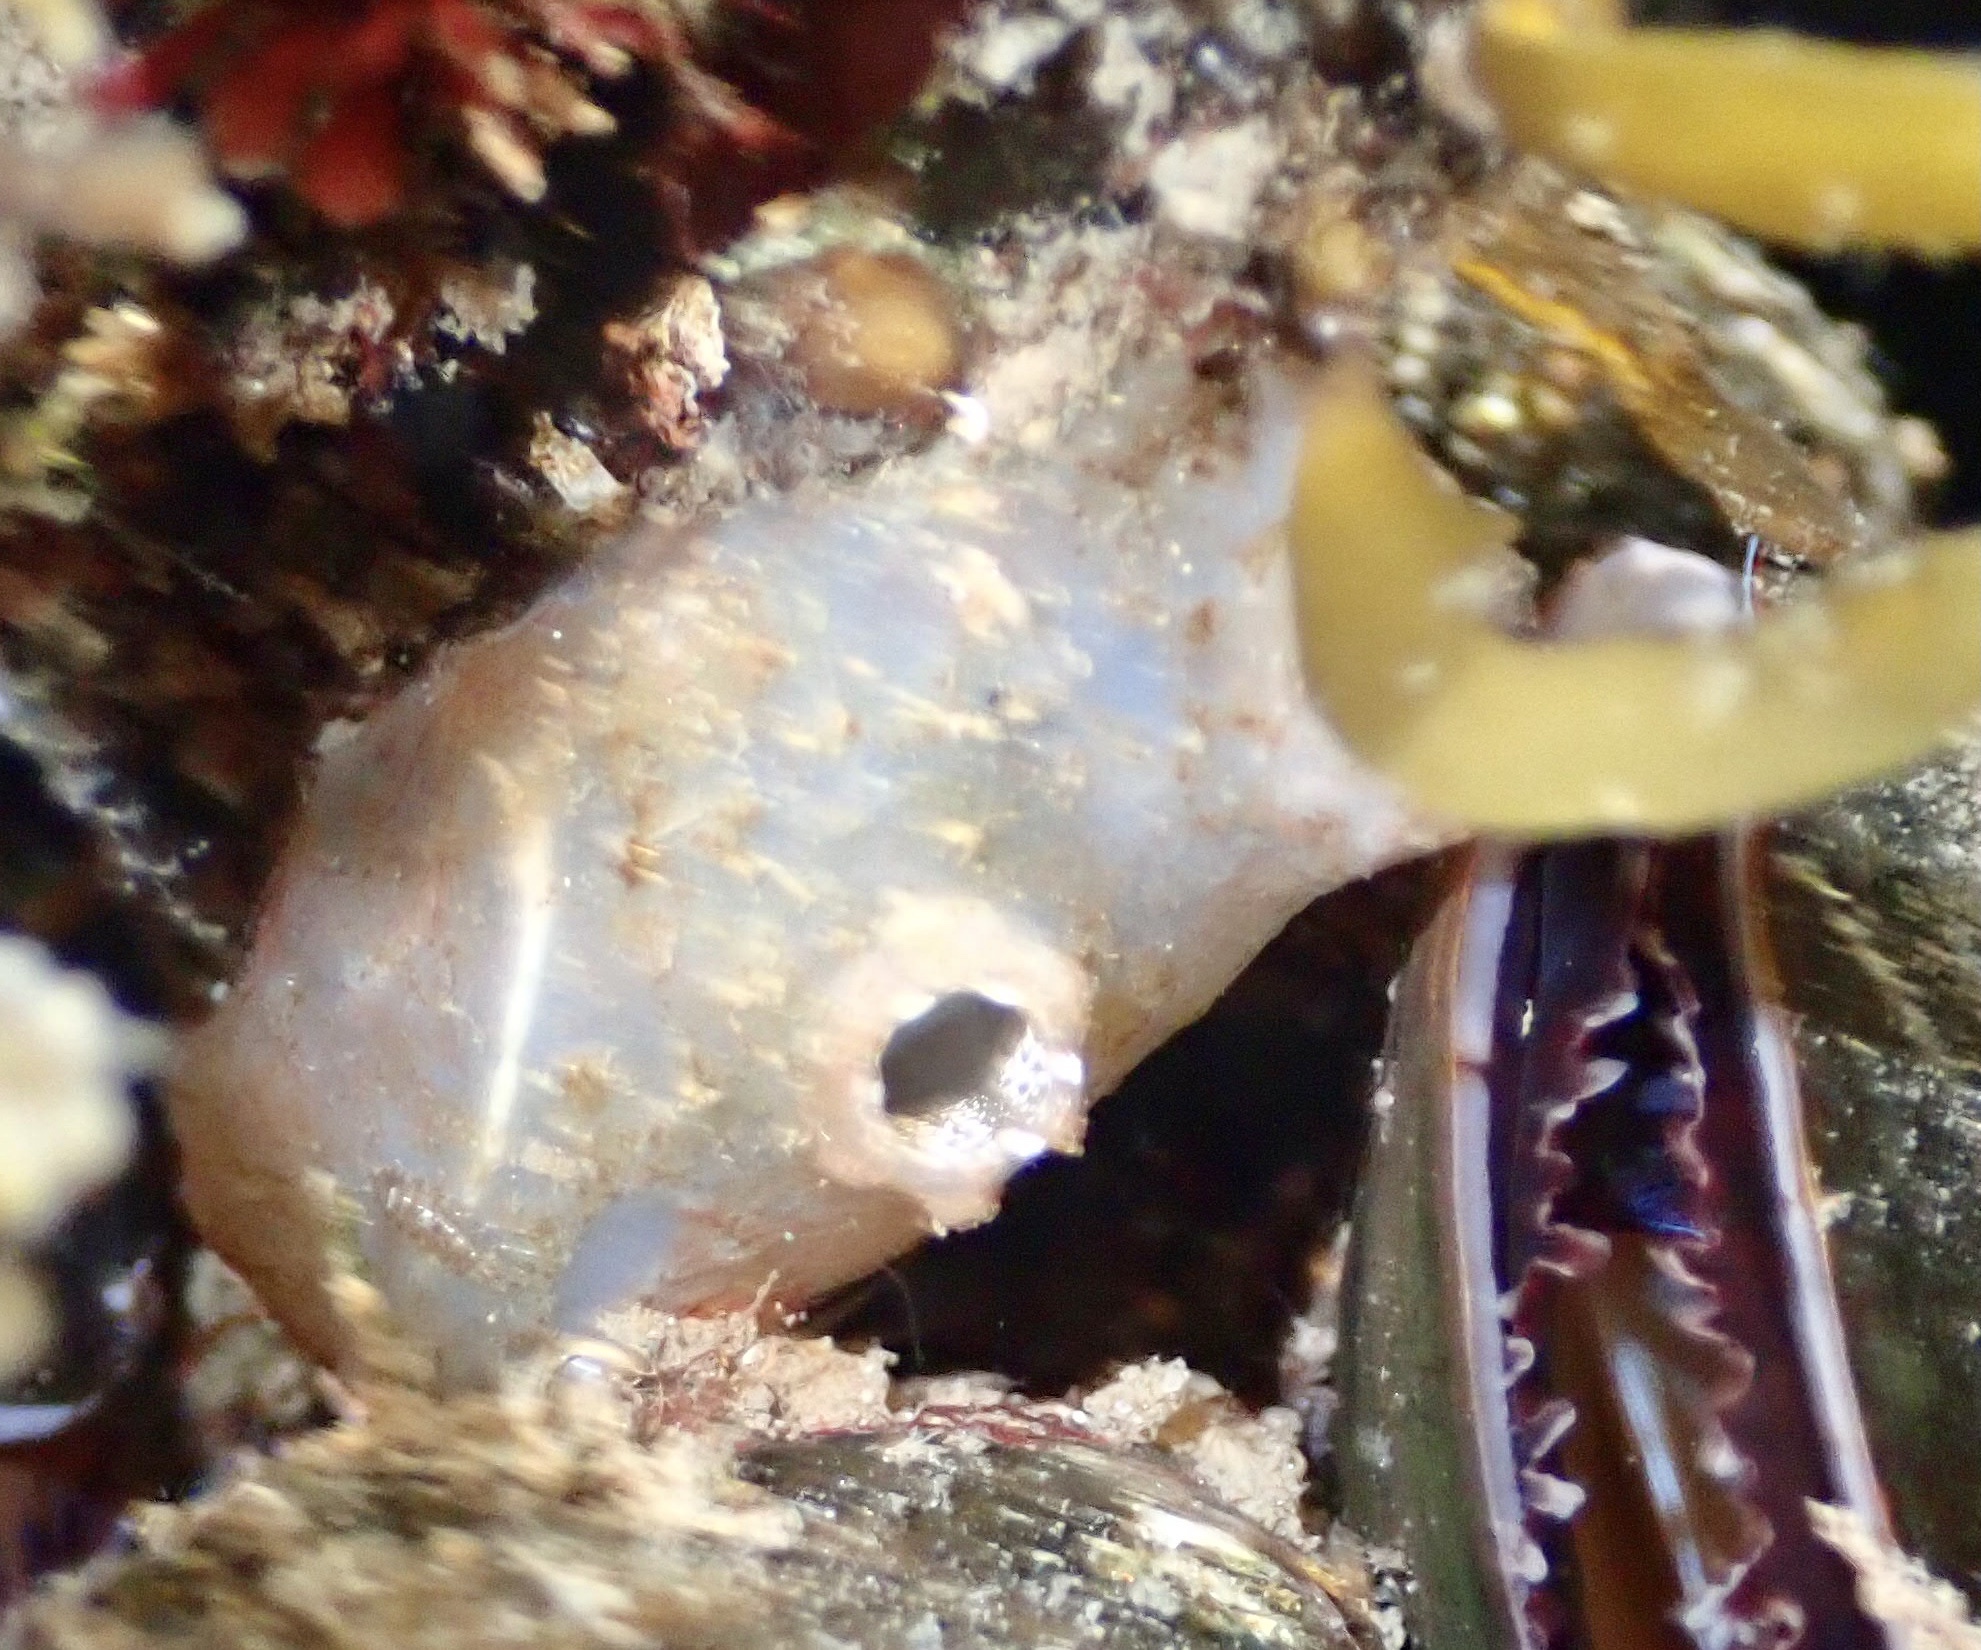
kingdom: Animalia
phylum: Chordata
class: Ascidiacea
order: Phlebobranchia
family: Ascidiidae
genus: Ascidiella
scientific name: Ascidiella aspersa
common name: Dirty sea-squirt
